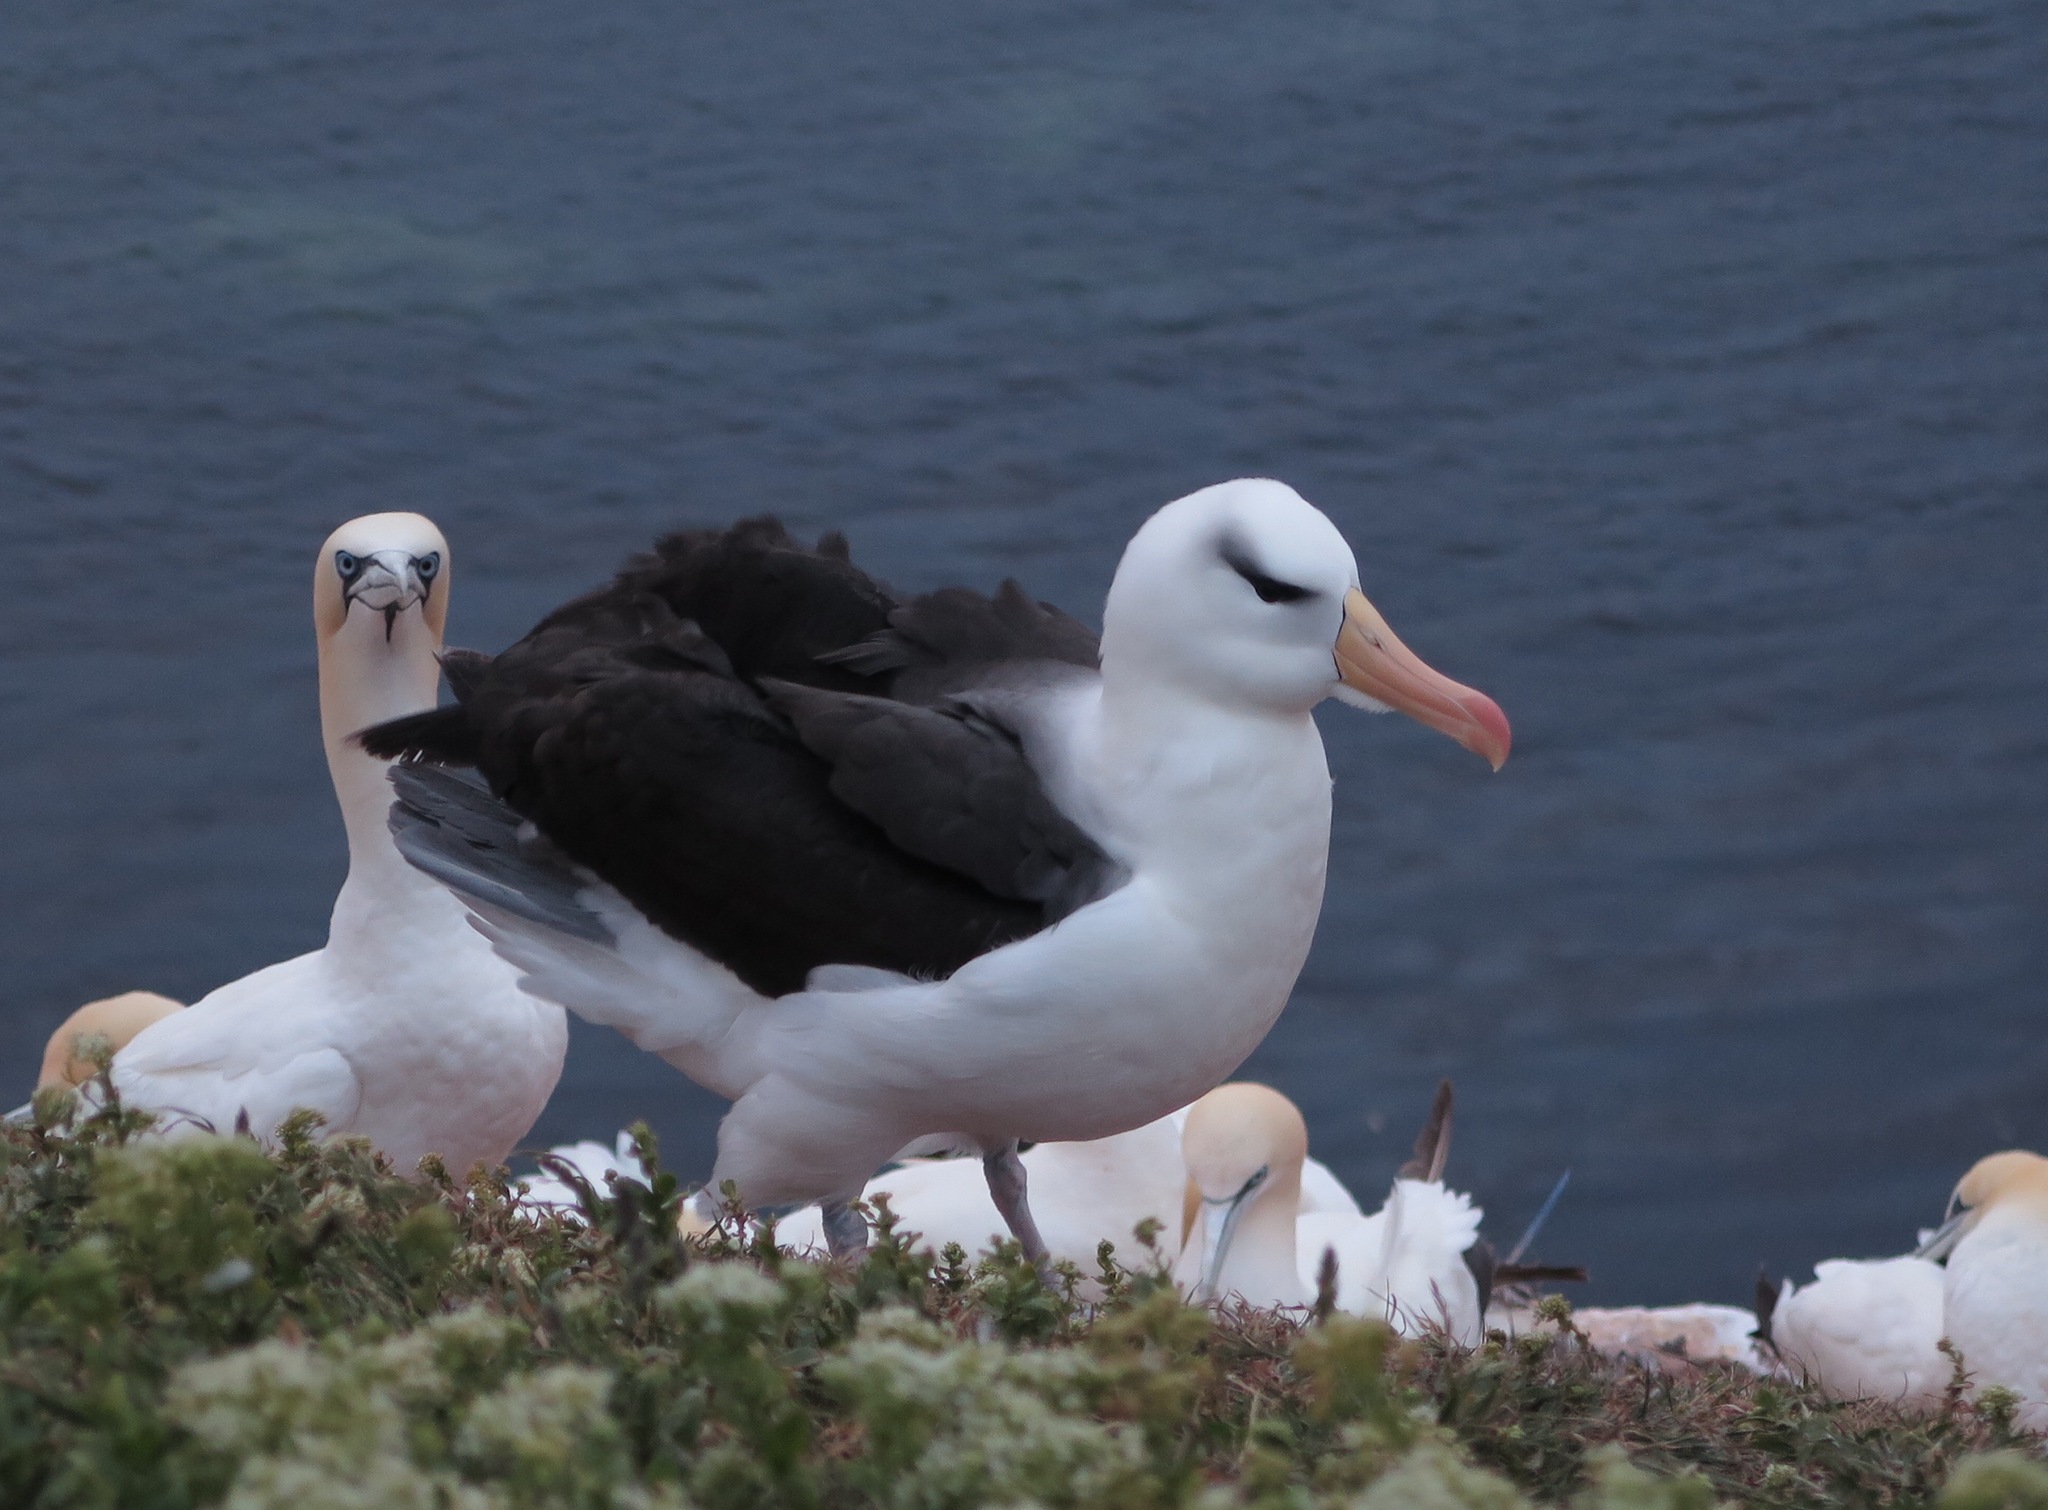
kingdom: Animalia
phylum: Chordata
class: Aves
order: Procellariiformes
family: Diomedeidae
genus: Thalassarche
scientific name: Thalassarche melanophris
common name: Black-browed albatross
